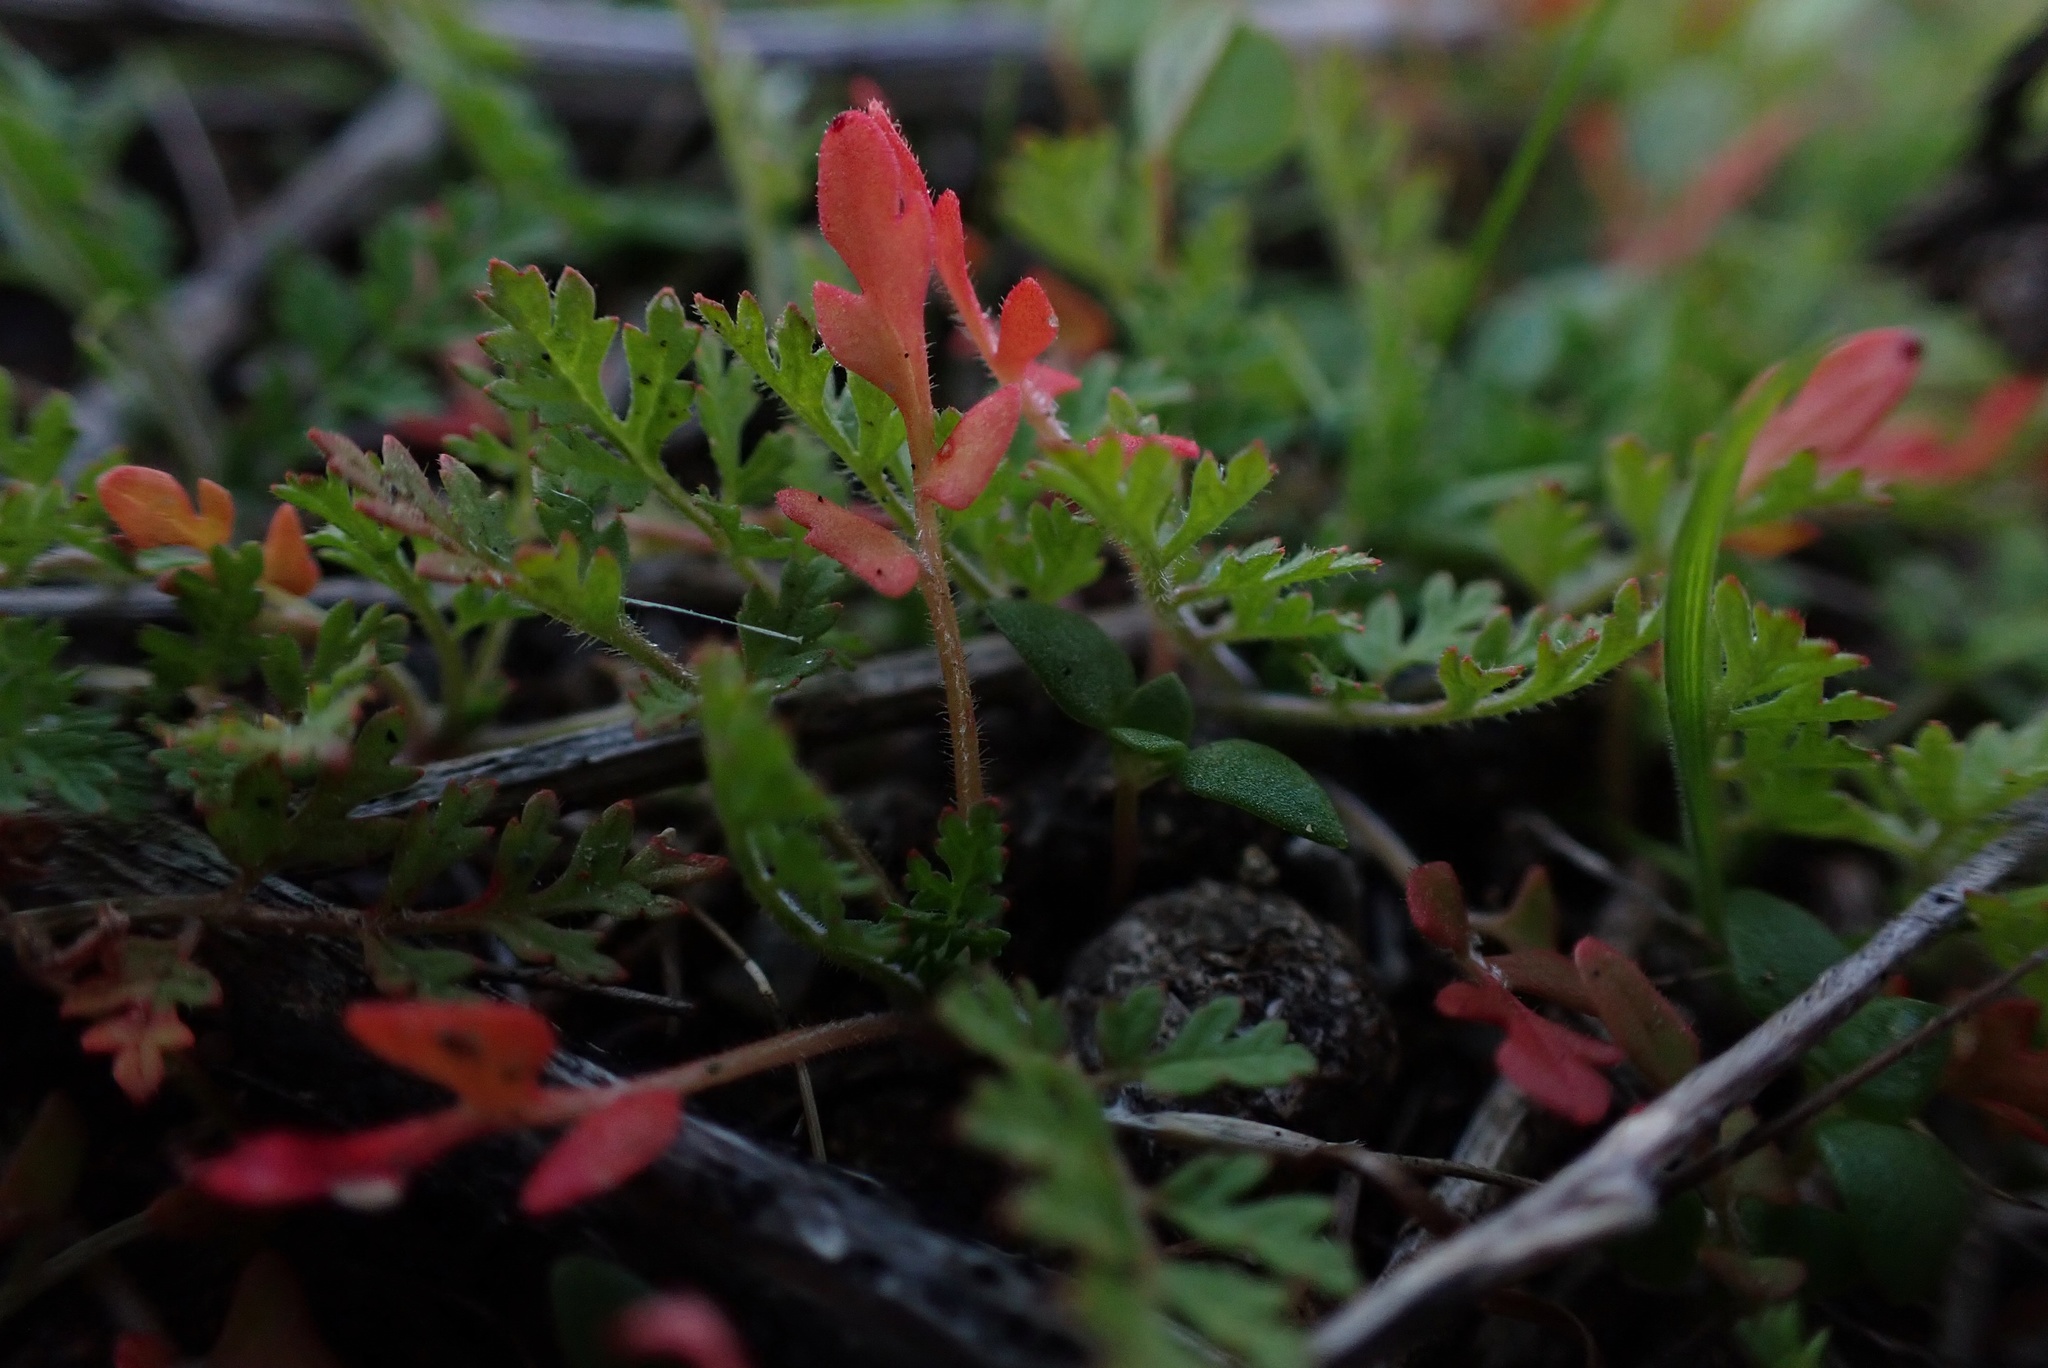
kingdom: Plantae
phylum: Tracheophyta
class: Magnoliopsida
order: Geraniales
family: Geraniaceae
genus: Erodium
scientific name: Erodium cicutarium
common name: Common stork's-bill
